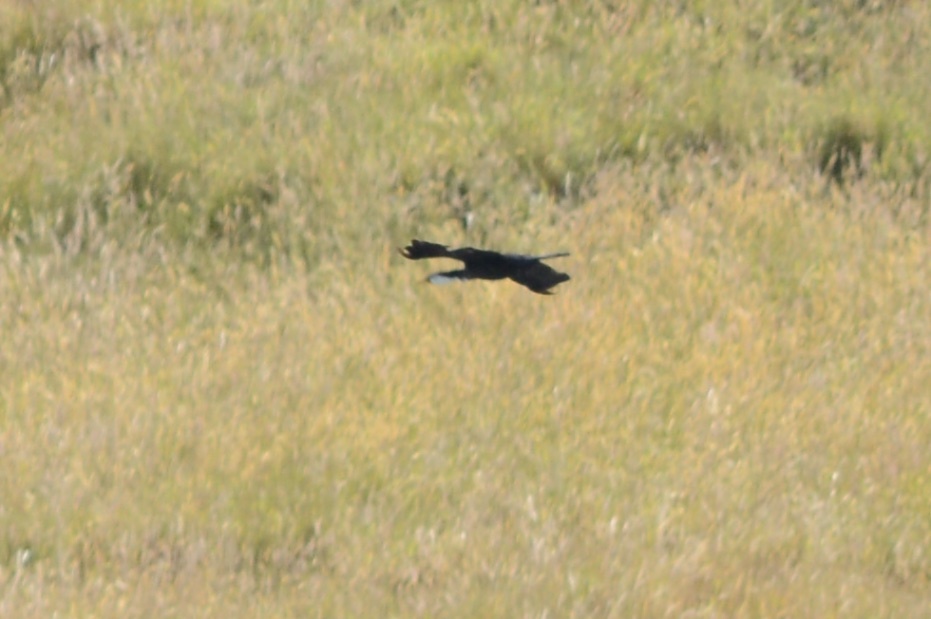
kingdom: Animalia
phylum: Chordata
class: Aves
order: Suliformes
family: Phalacrocoracidae
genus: Microcarbo
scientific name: Microcarbo melanoleucos
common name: Little pied cormorant
